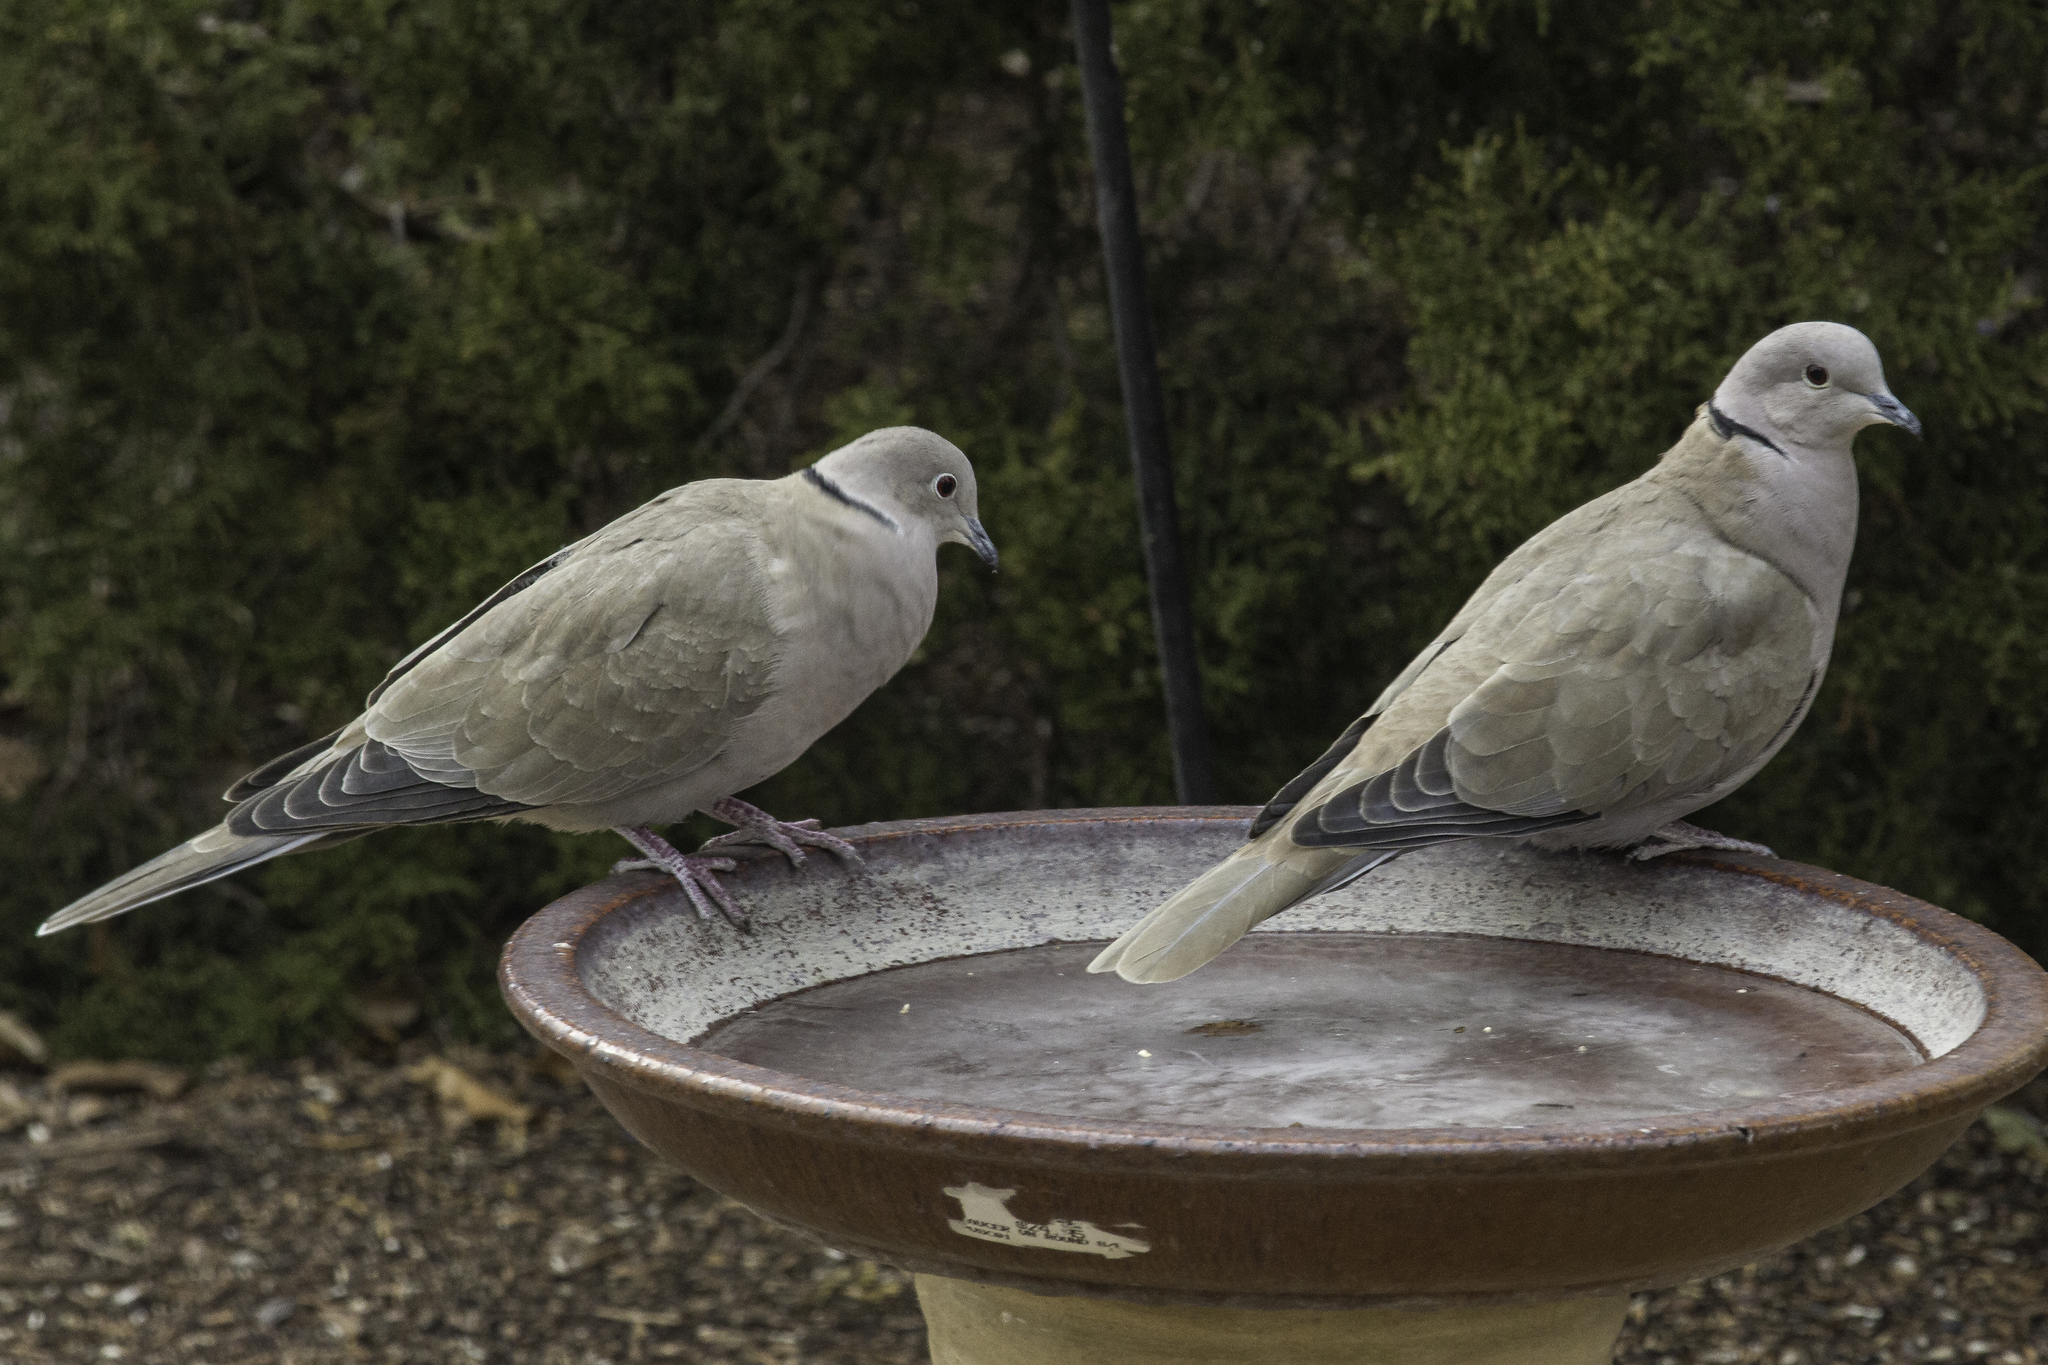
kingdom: Animalia
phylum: Chordata
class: Aves
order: Columbiformes
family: Columbidae
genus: Streptopelia
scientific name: Streptopelia decaocto
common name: Eurasian collared dove
